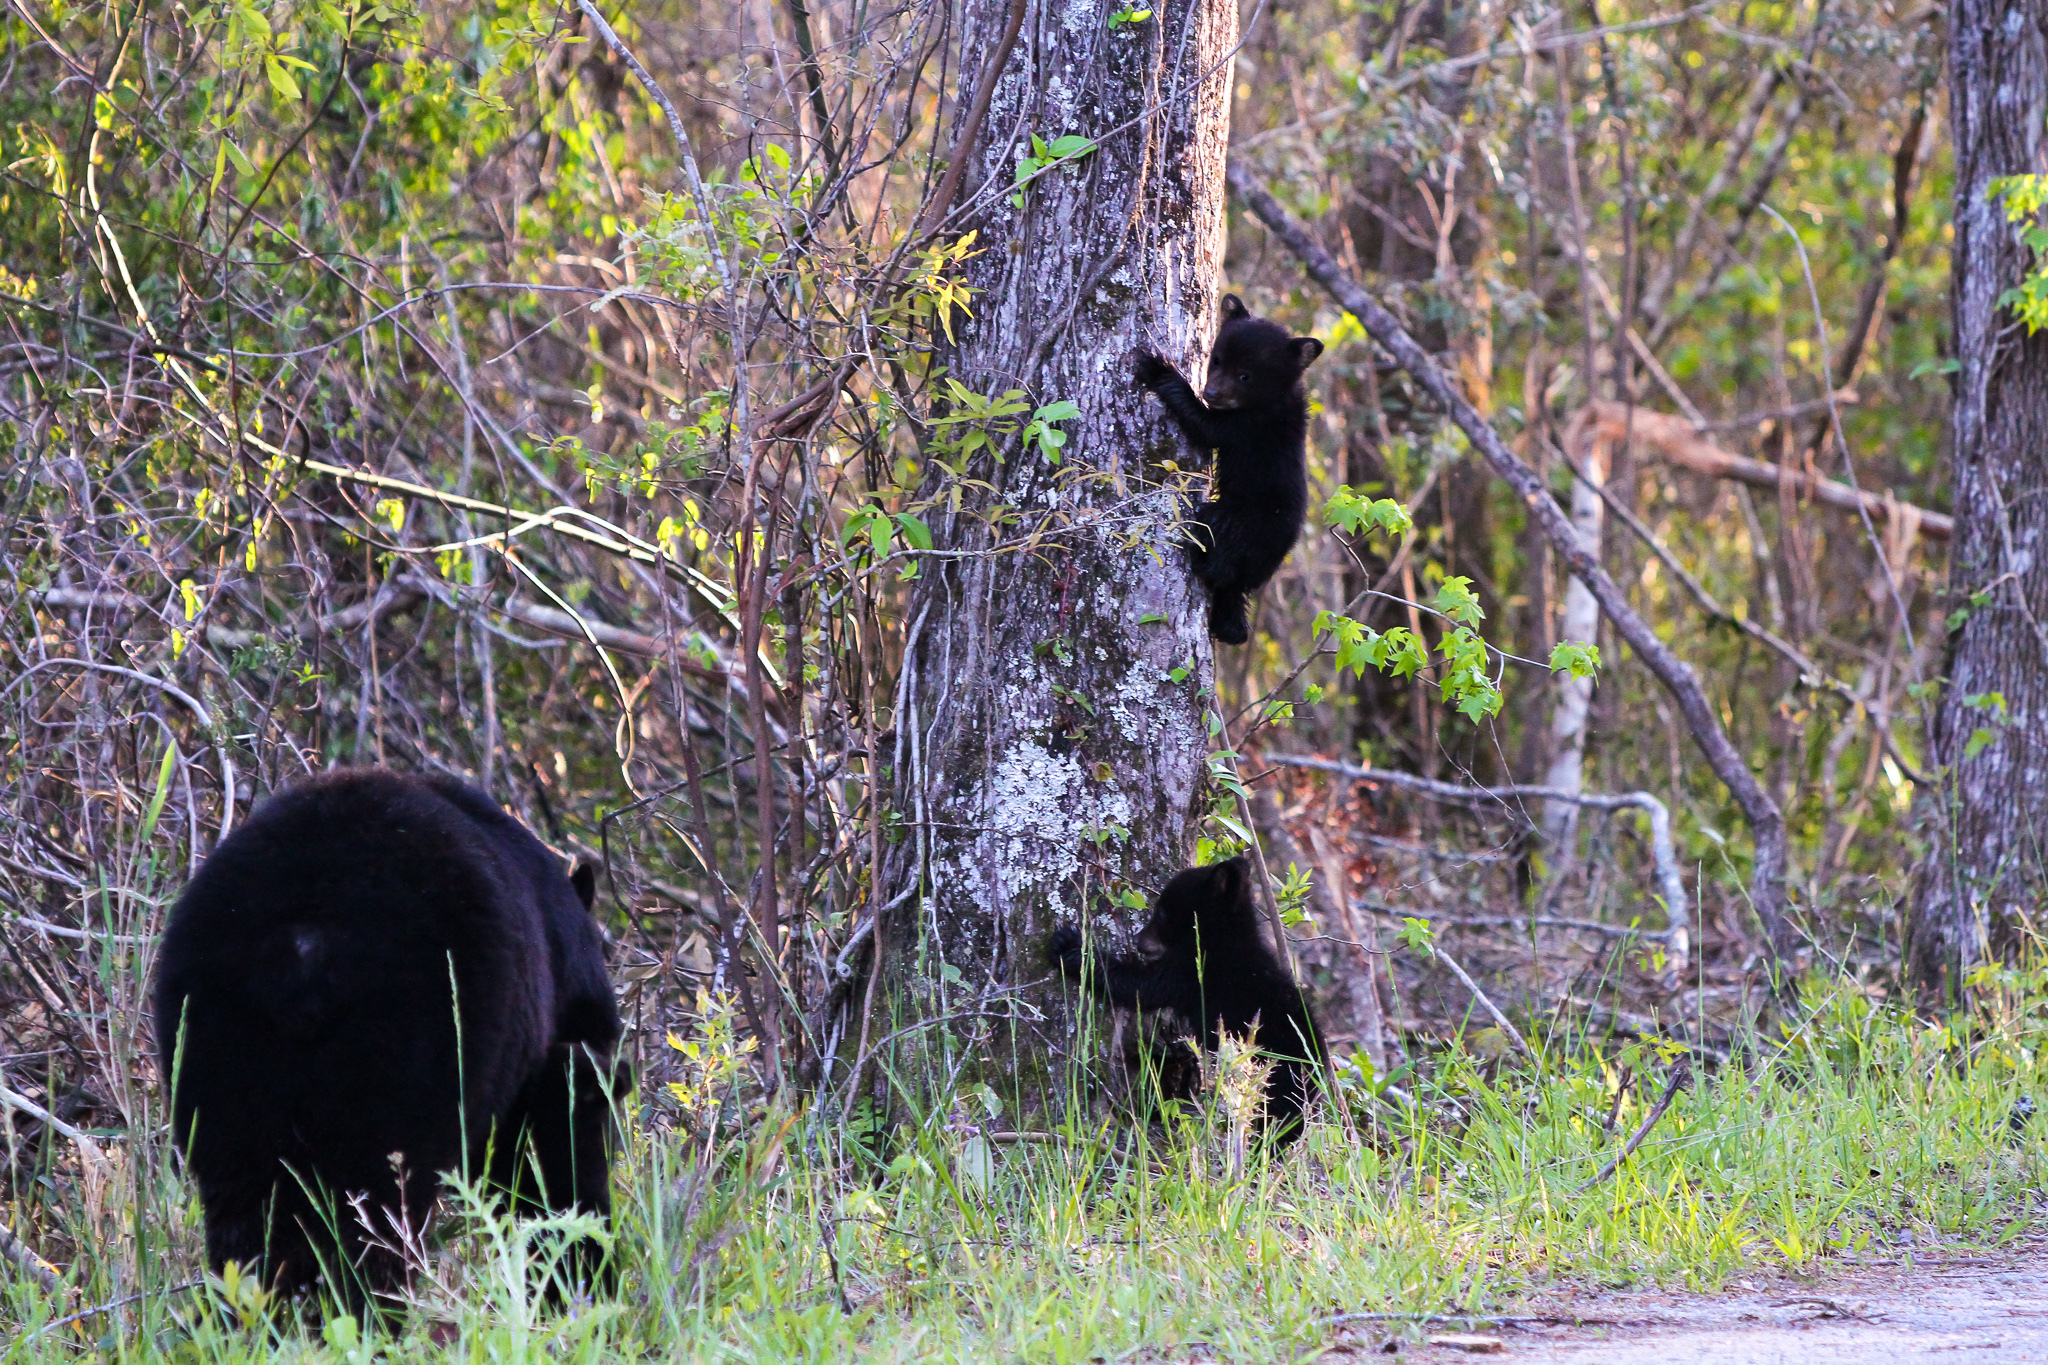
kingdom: Animalia
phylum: Chordata
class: Mammalia
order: Carnivora
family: Ursidae
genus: Ursus
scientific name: Ursus americanus
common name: American black bear
